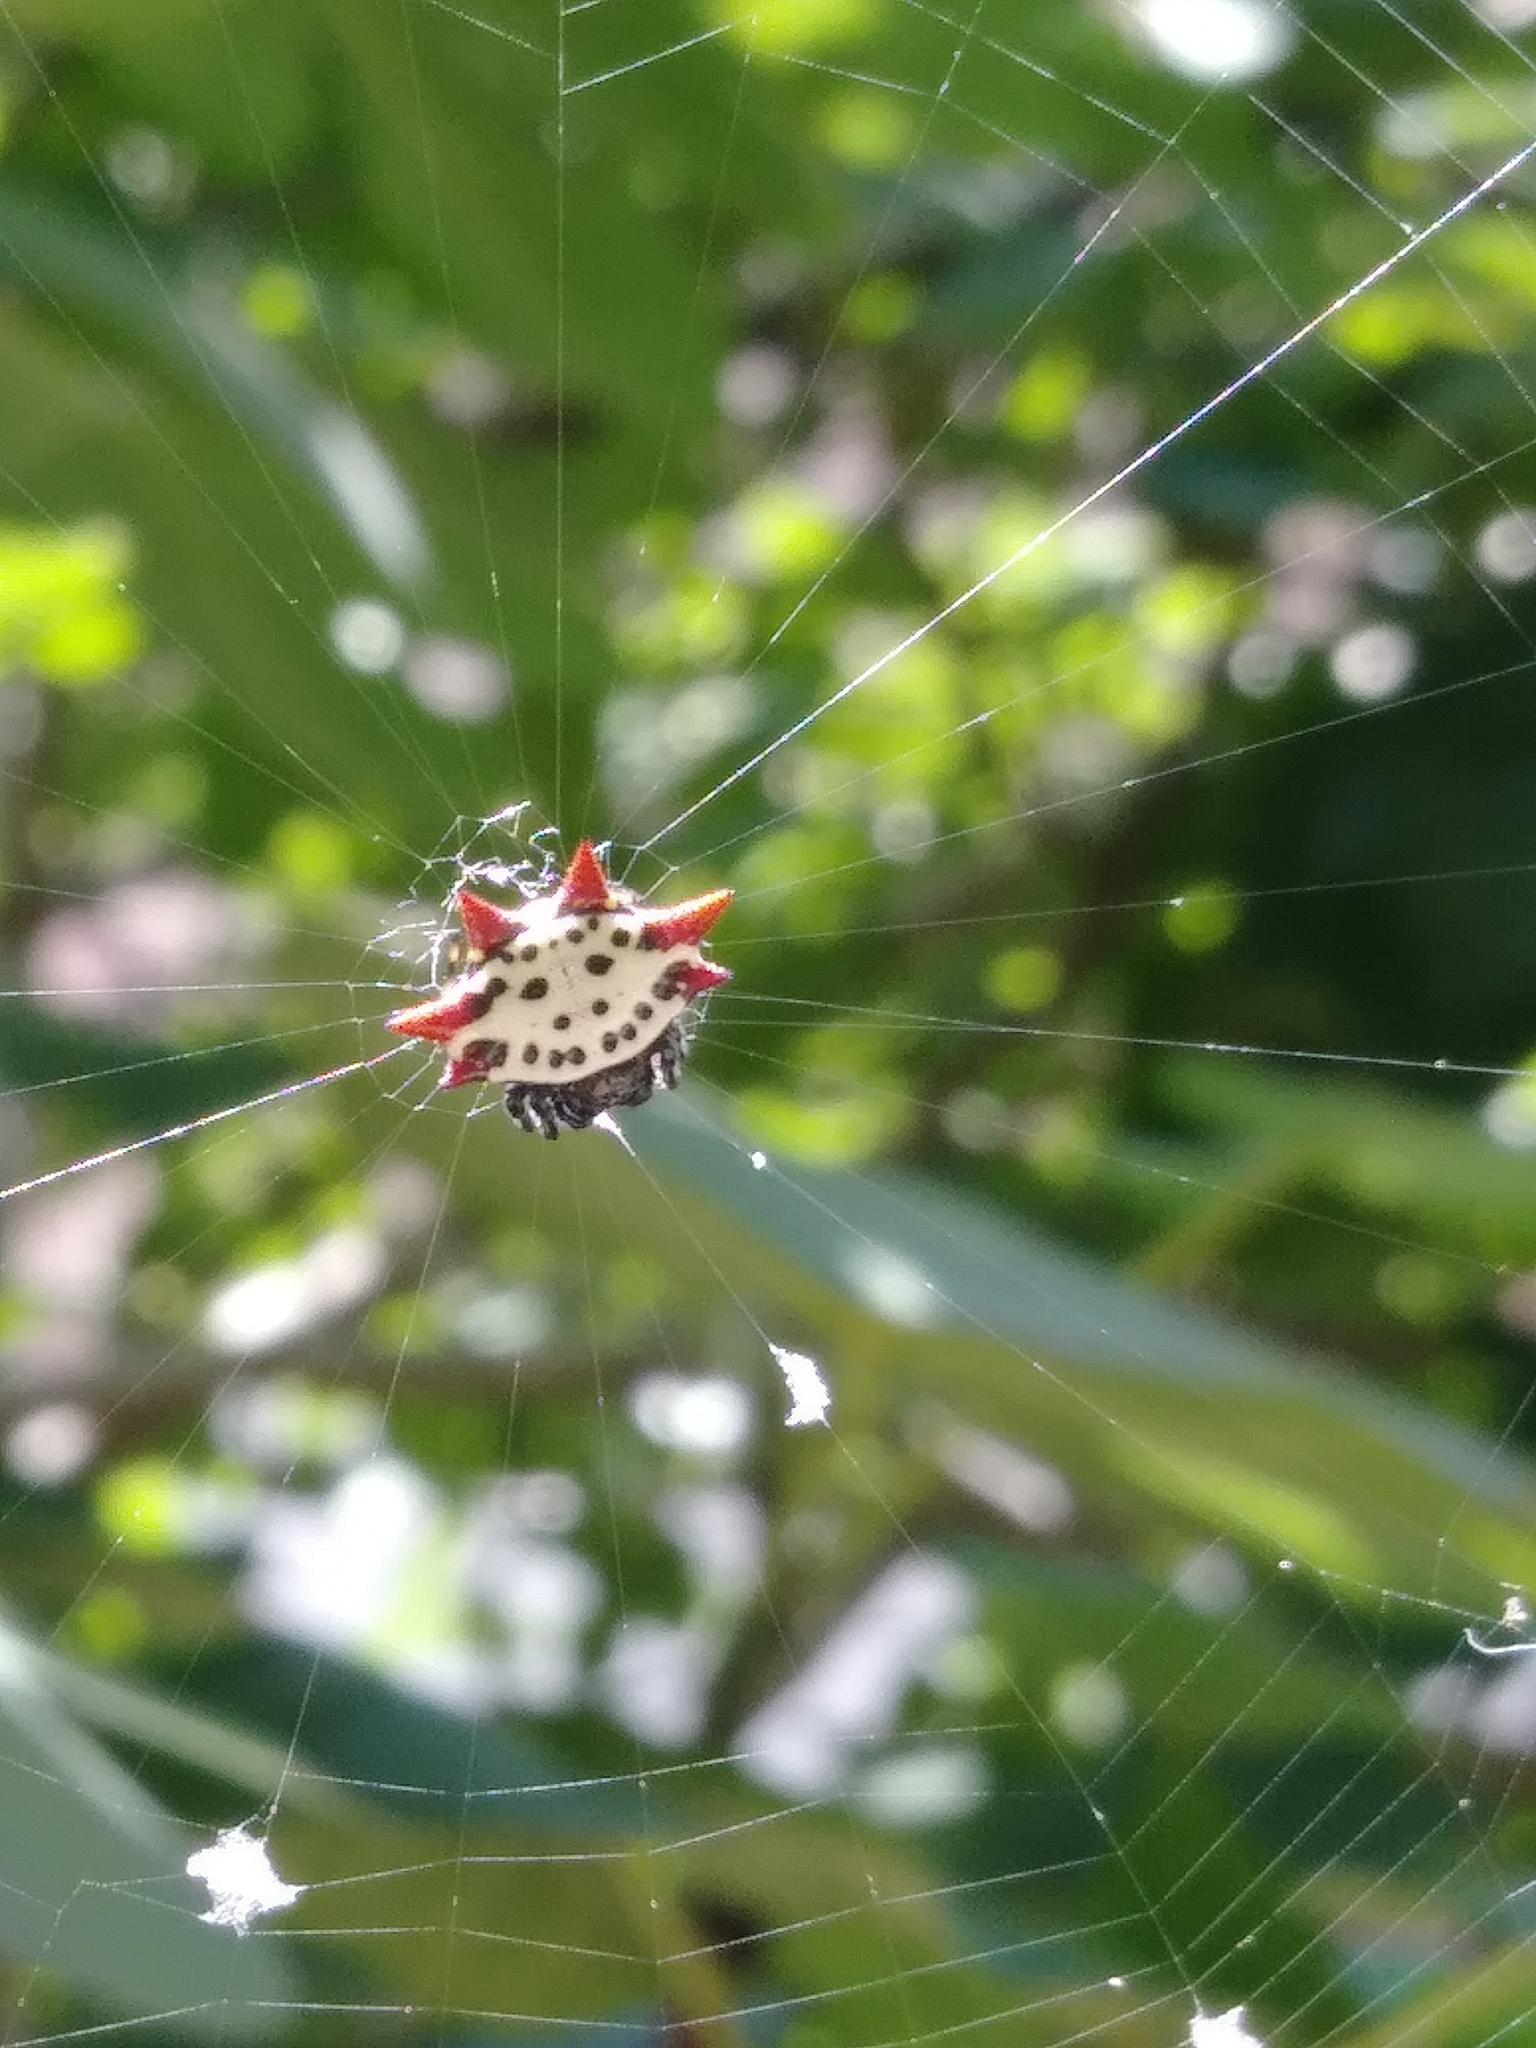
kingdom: Animalia
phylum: Arthropoda
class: Arachnida
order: Araneae
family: Araneidae
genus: Gasteracantha
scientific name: Gasteracantha cancriformis
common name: Orb weavers
